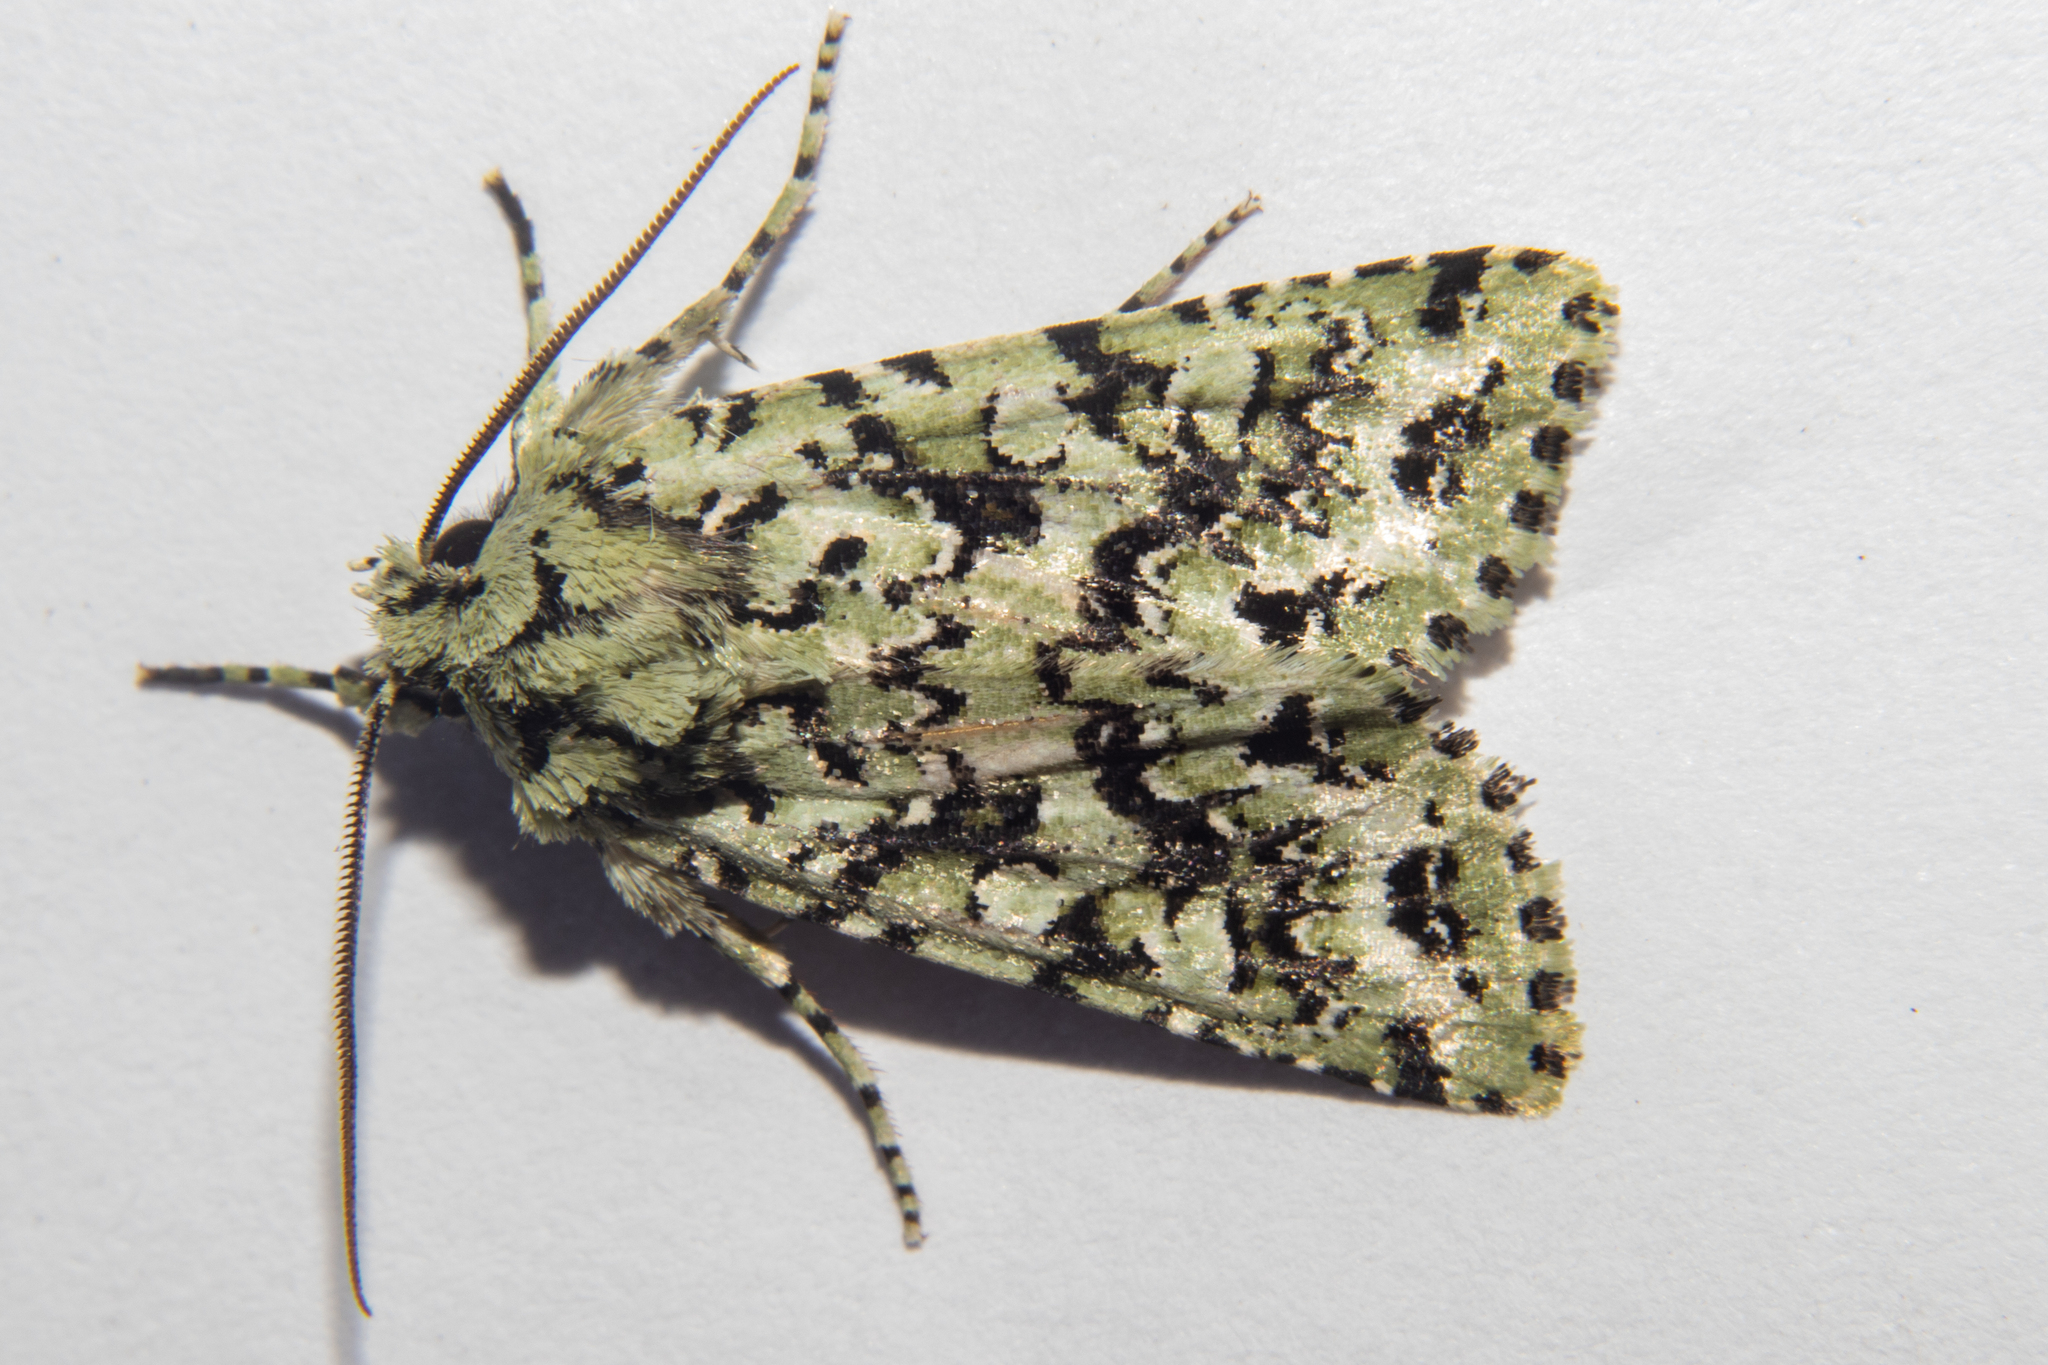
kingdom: Animalia
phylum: Arthropoda
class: Insecta
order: Lepidoptera
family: Noctuidae
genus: Meterana
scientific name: Meterana
